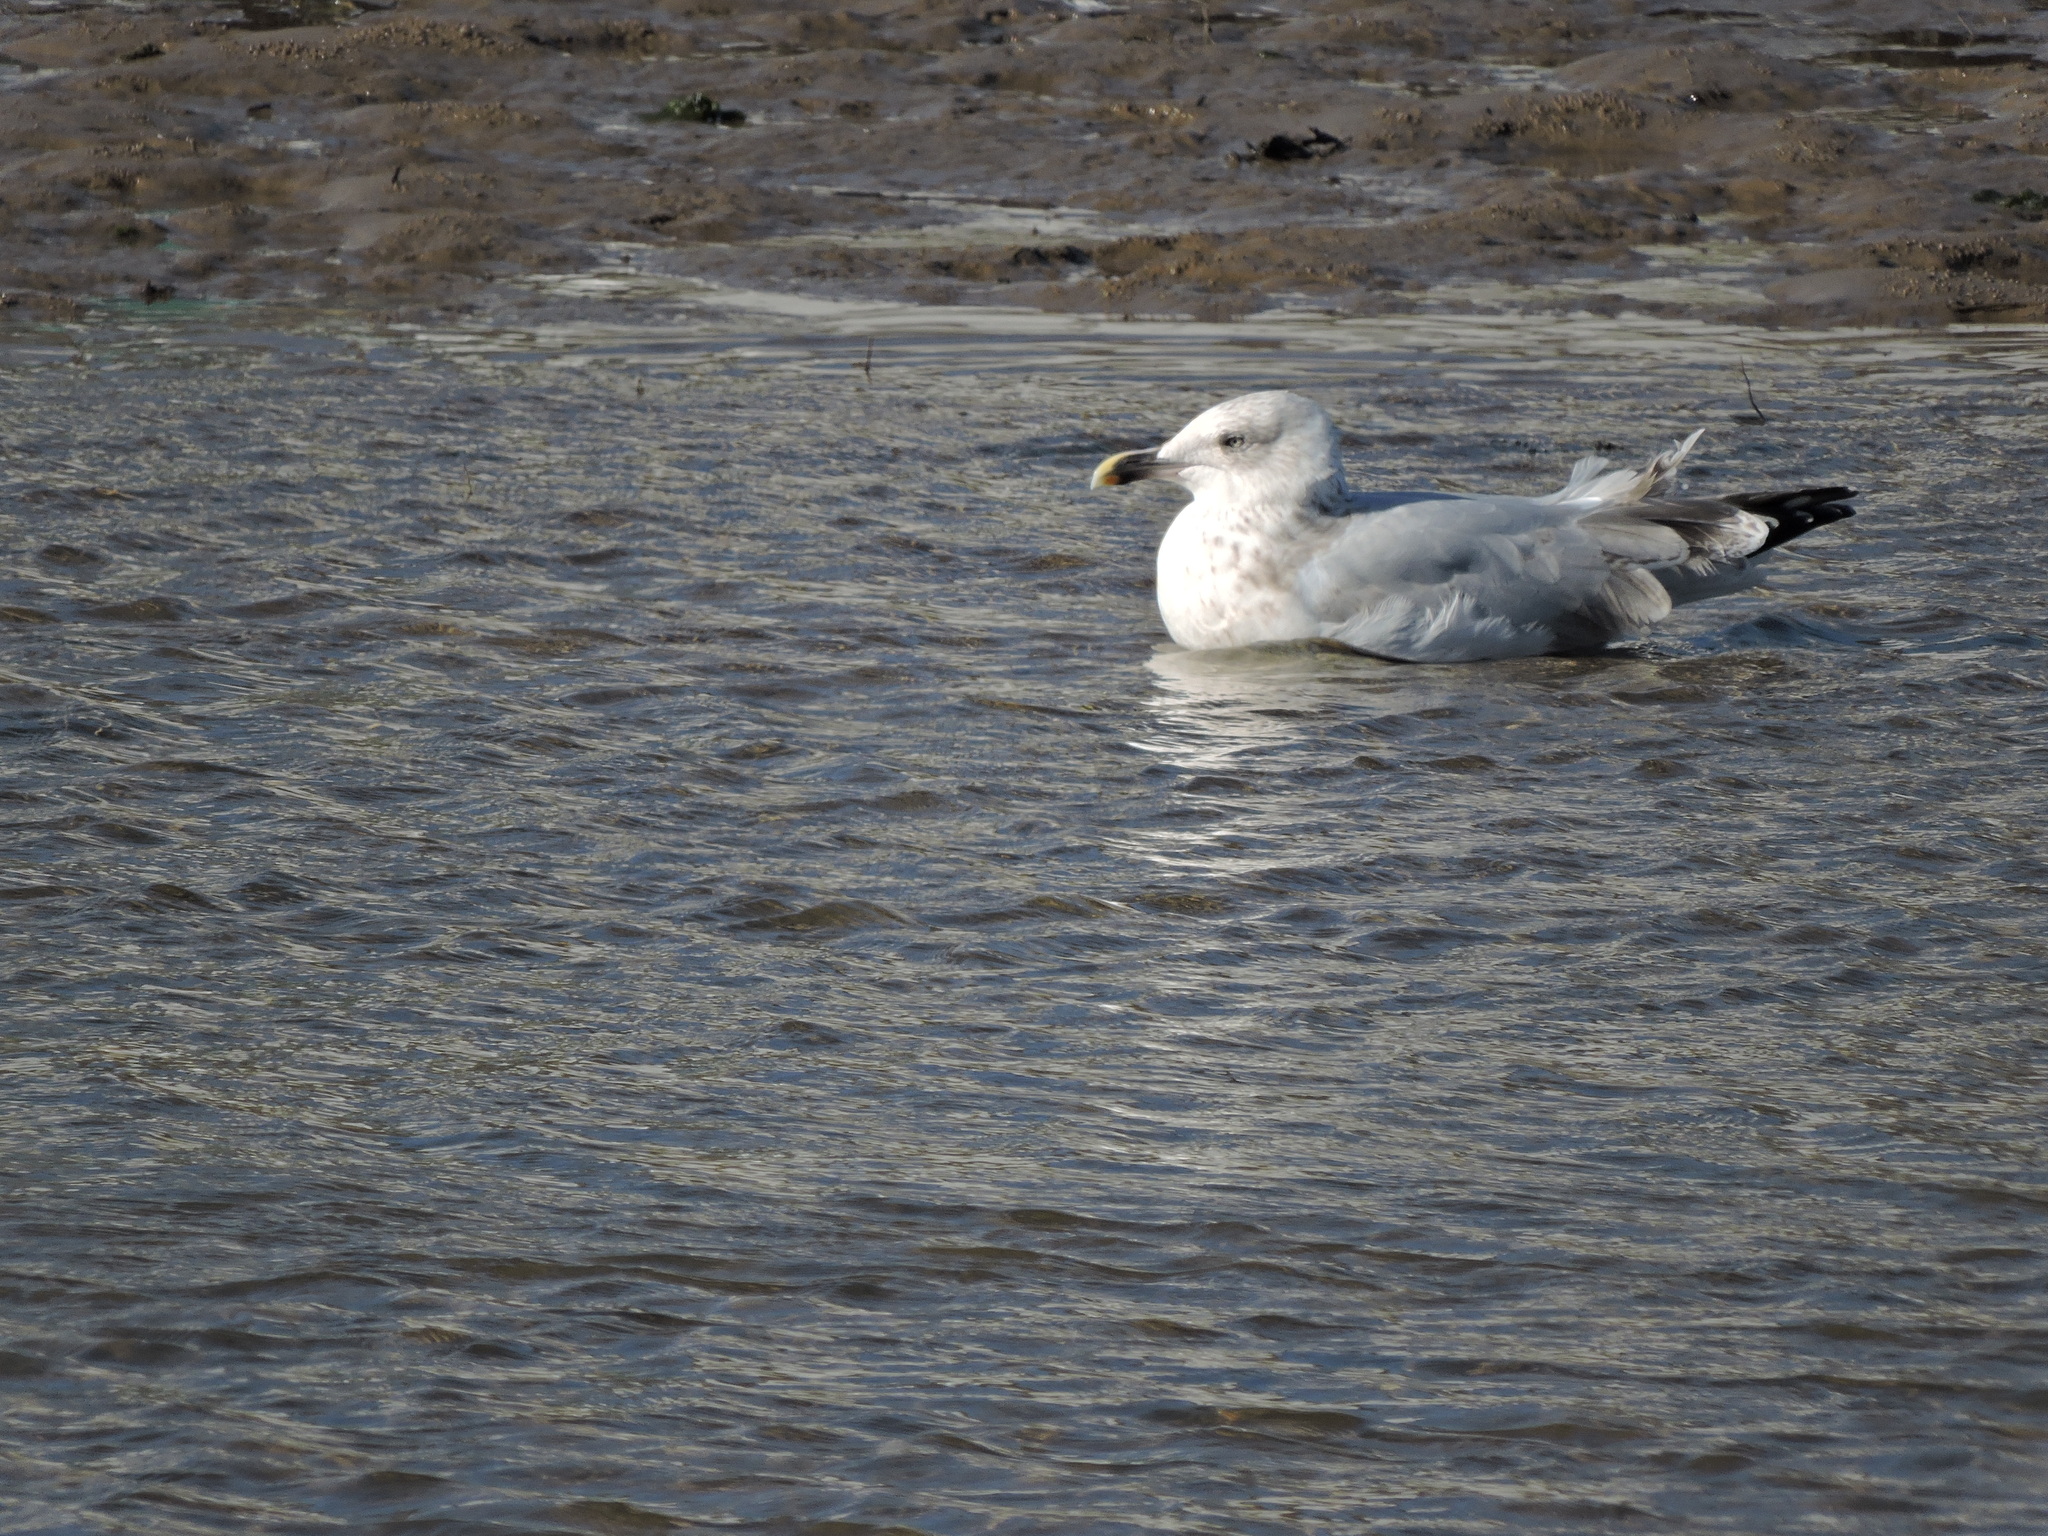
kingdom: Animalia
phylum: Chordata
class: Aves
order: Charadriiformes
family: Laridae
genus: Larus
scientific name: Larus argentatus
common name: Herring gull
